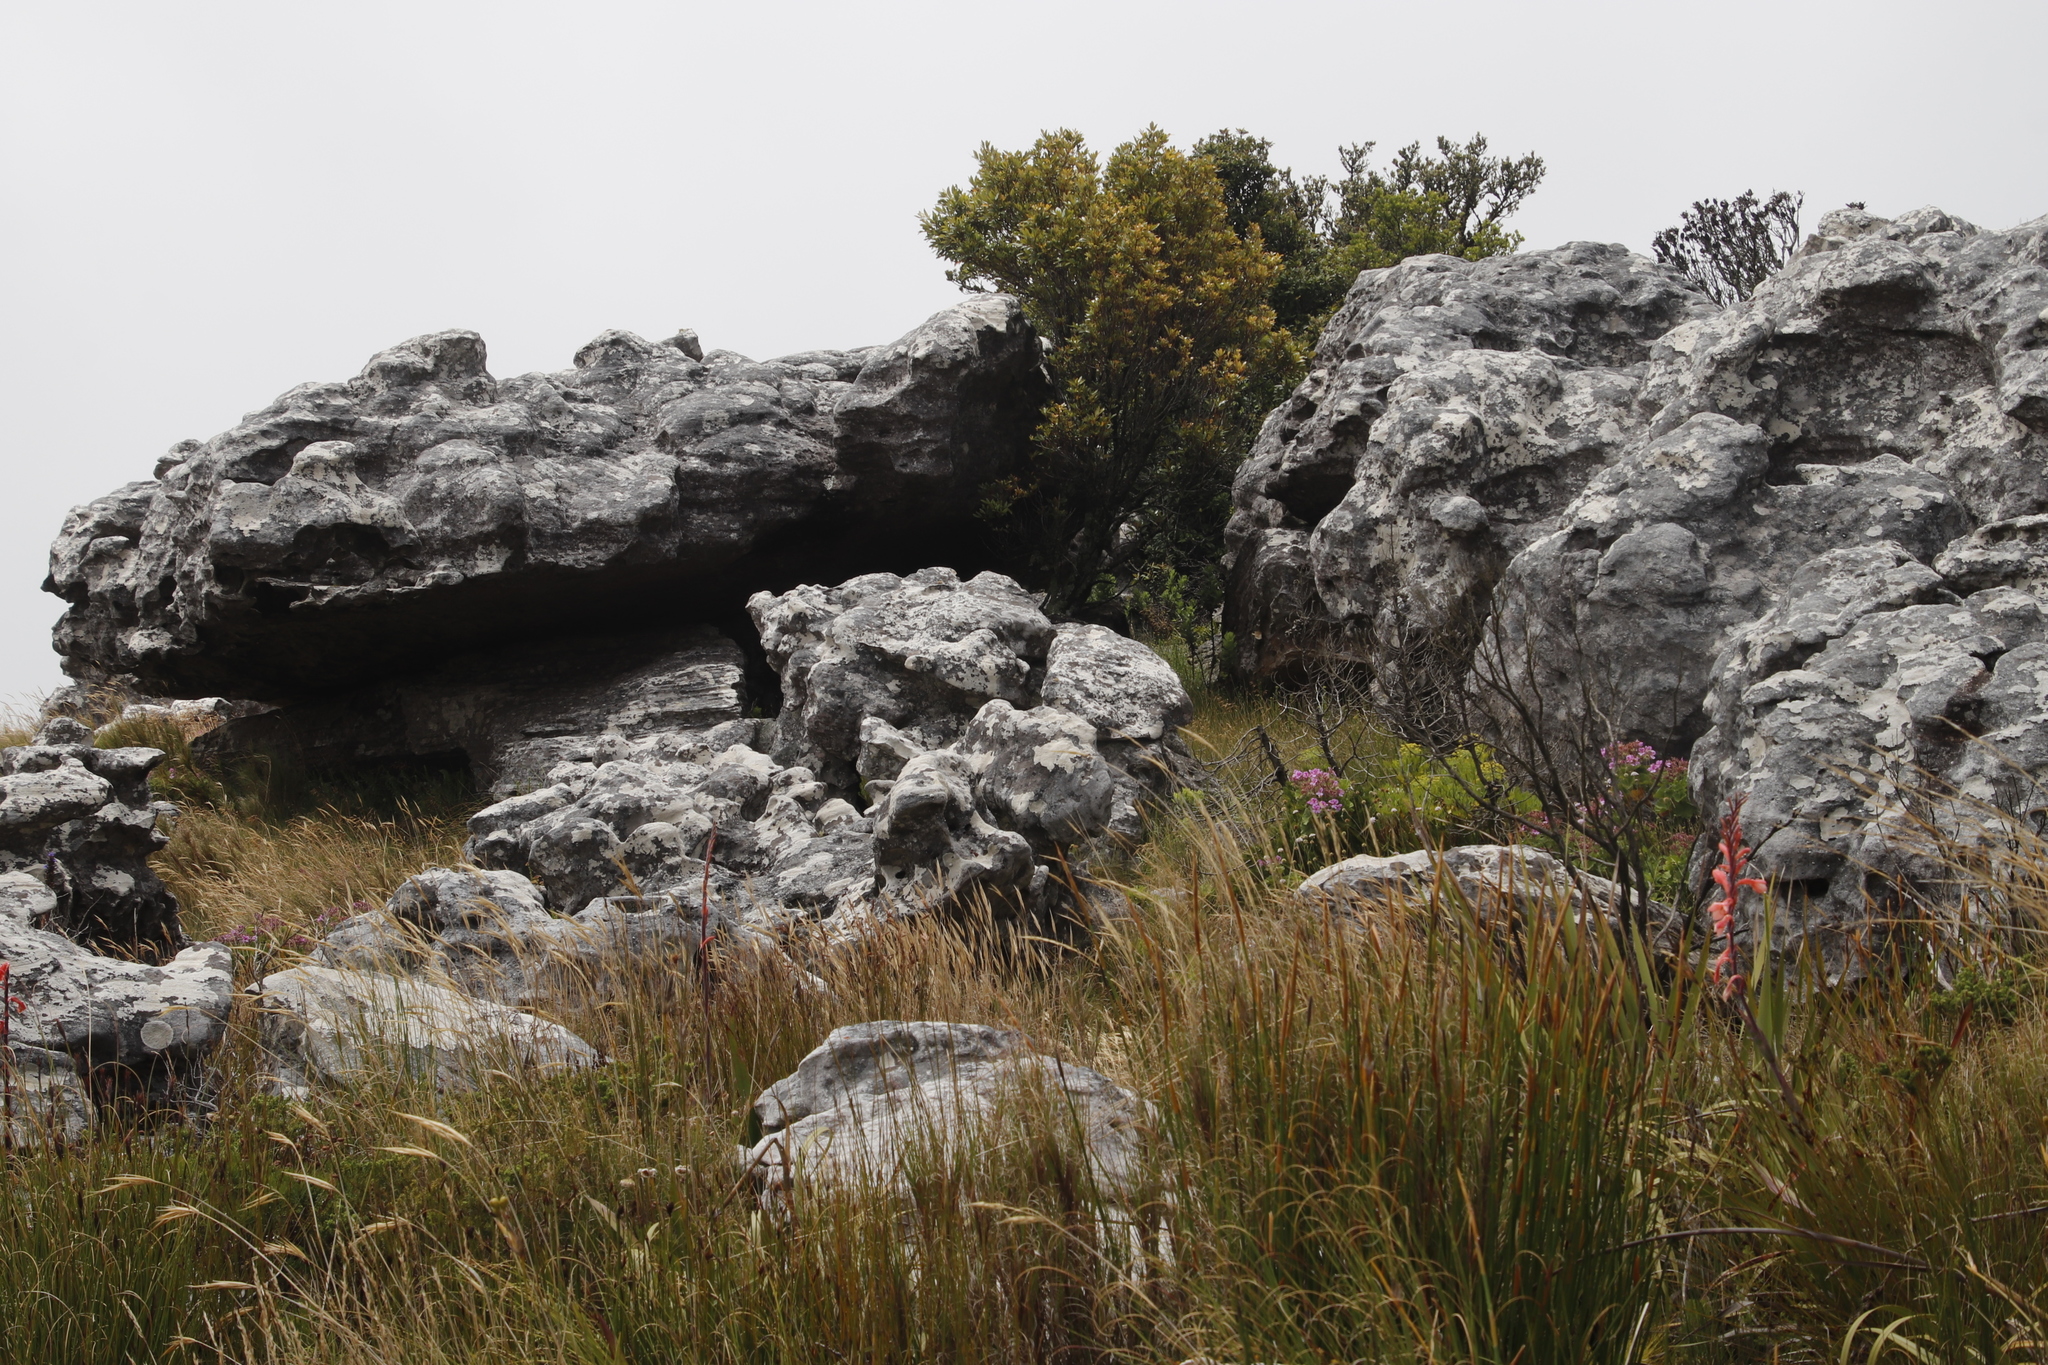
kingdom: Plantae
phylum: Tracheophyta
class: Magnoliopsida
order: Oxalidales
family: Cunoniaceae
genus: Cunonia
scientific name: Cunonia capensis
